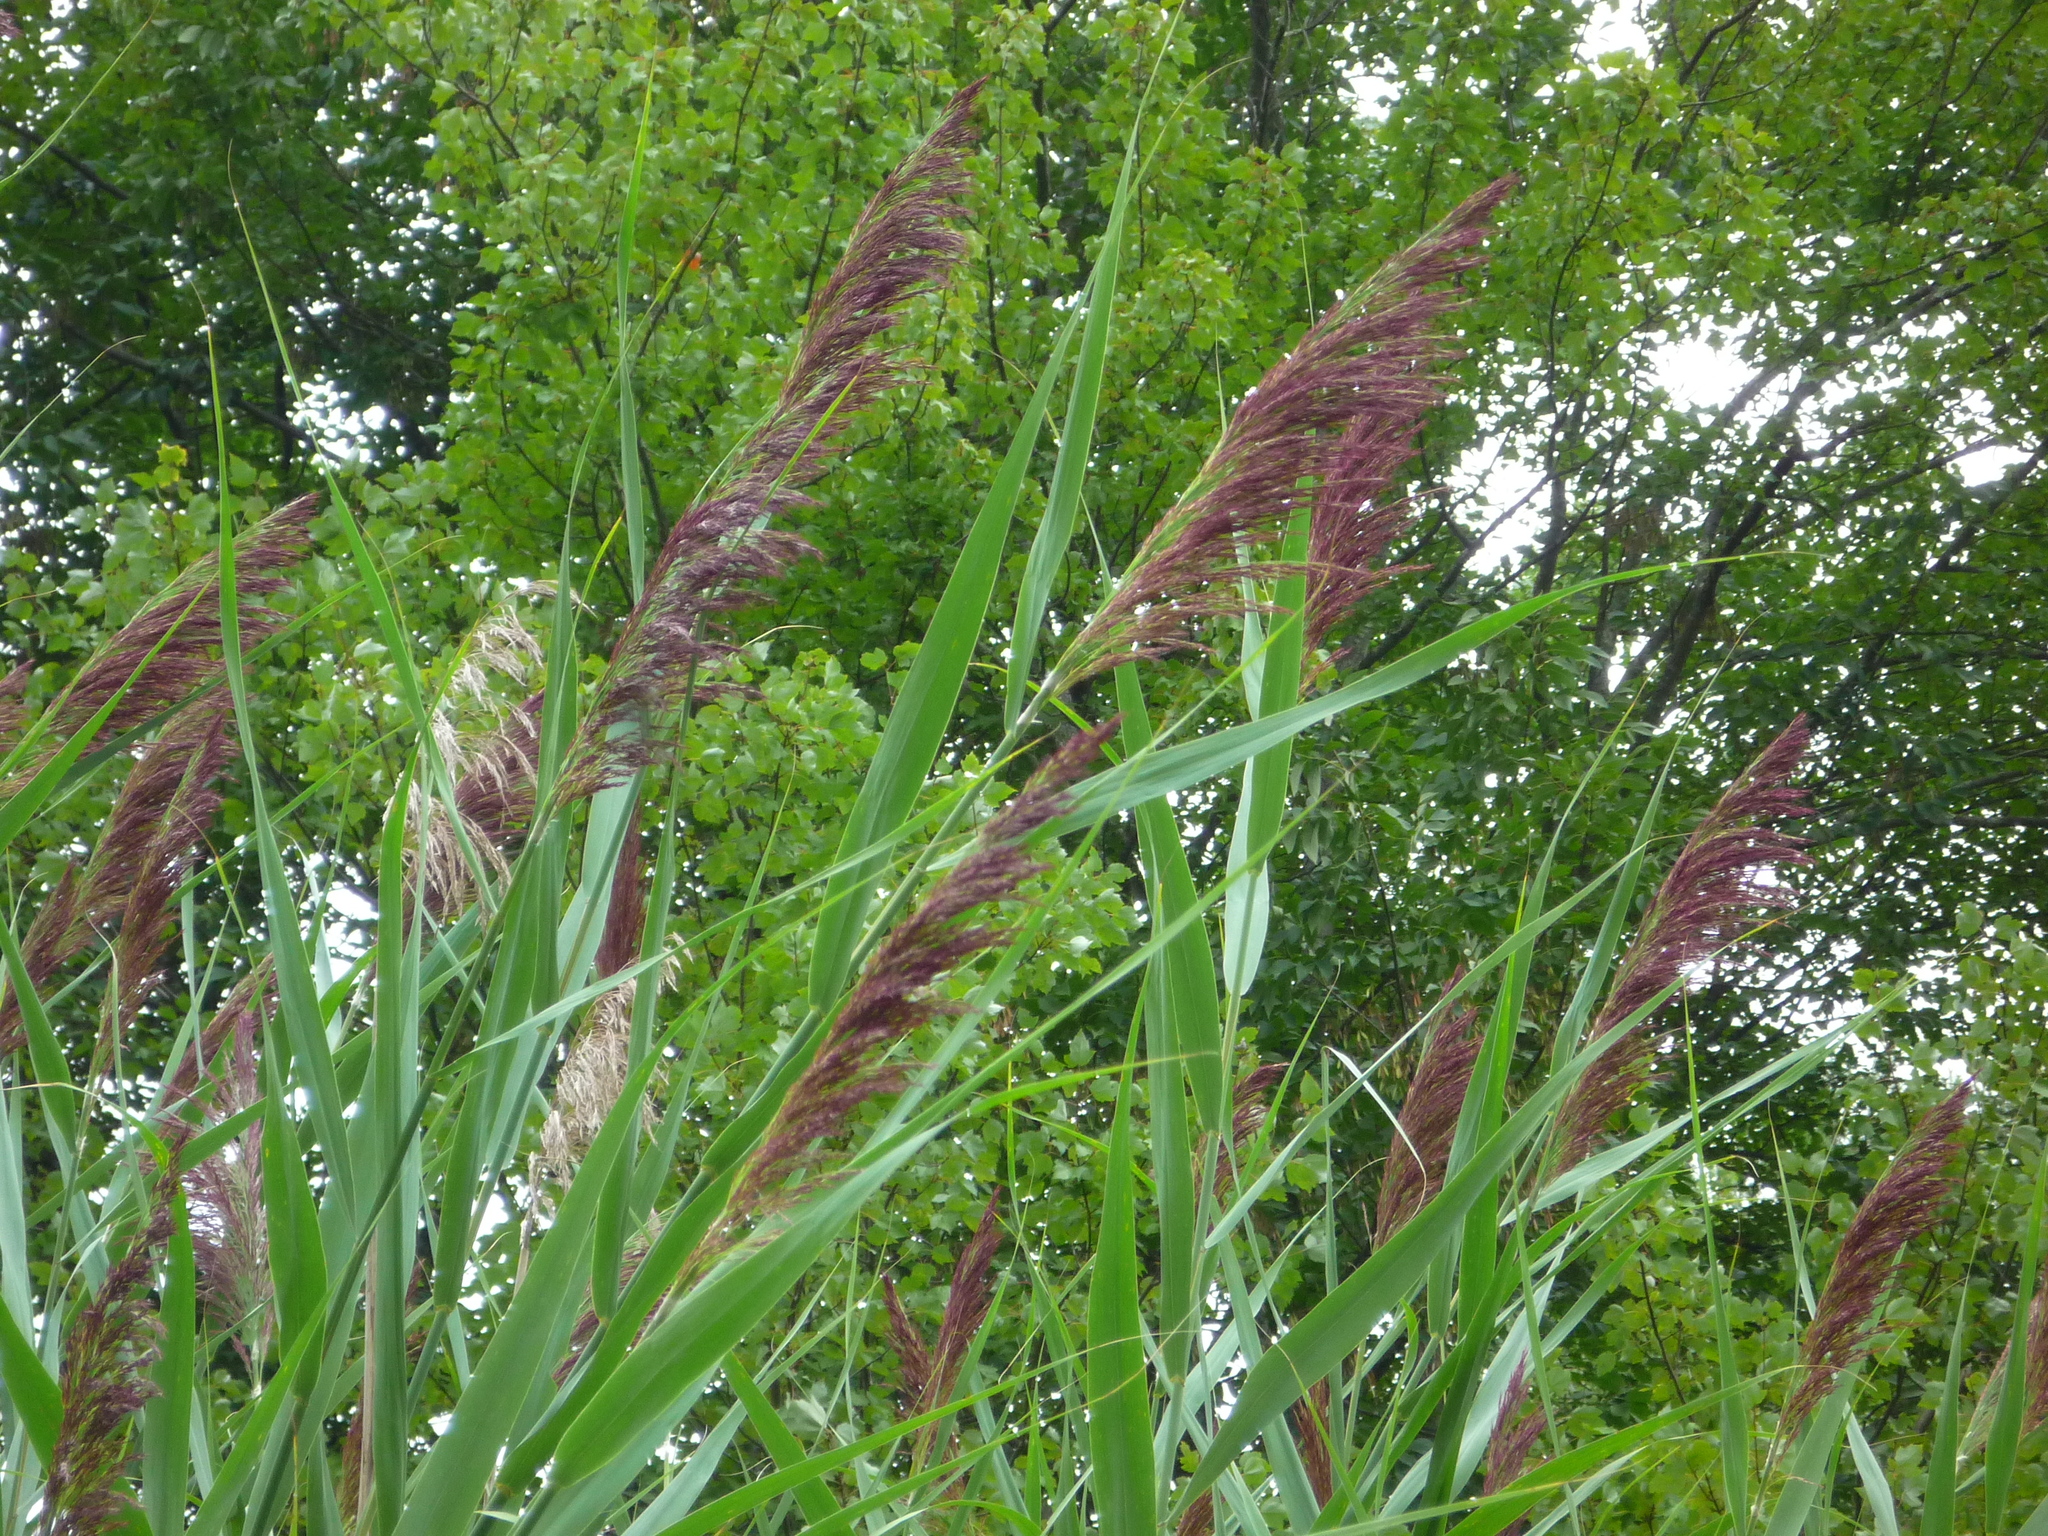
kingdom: Plantae
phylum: Tracheophyta
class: Liliopsida
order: Poales
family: Poaceae
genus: Phragmites
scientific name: Phragmites australis
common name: Common reed
